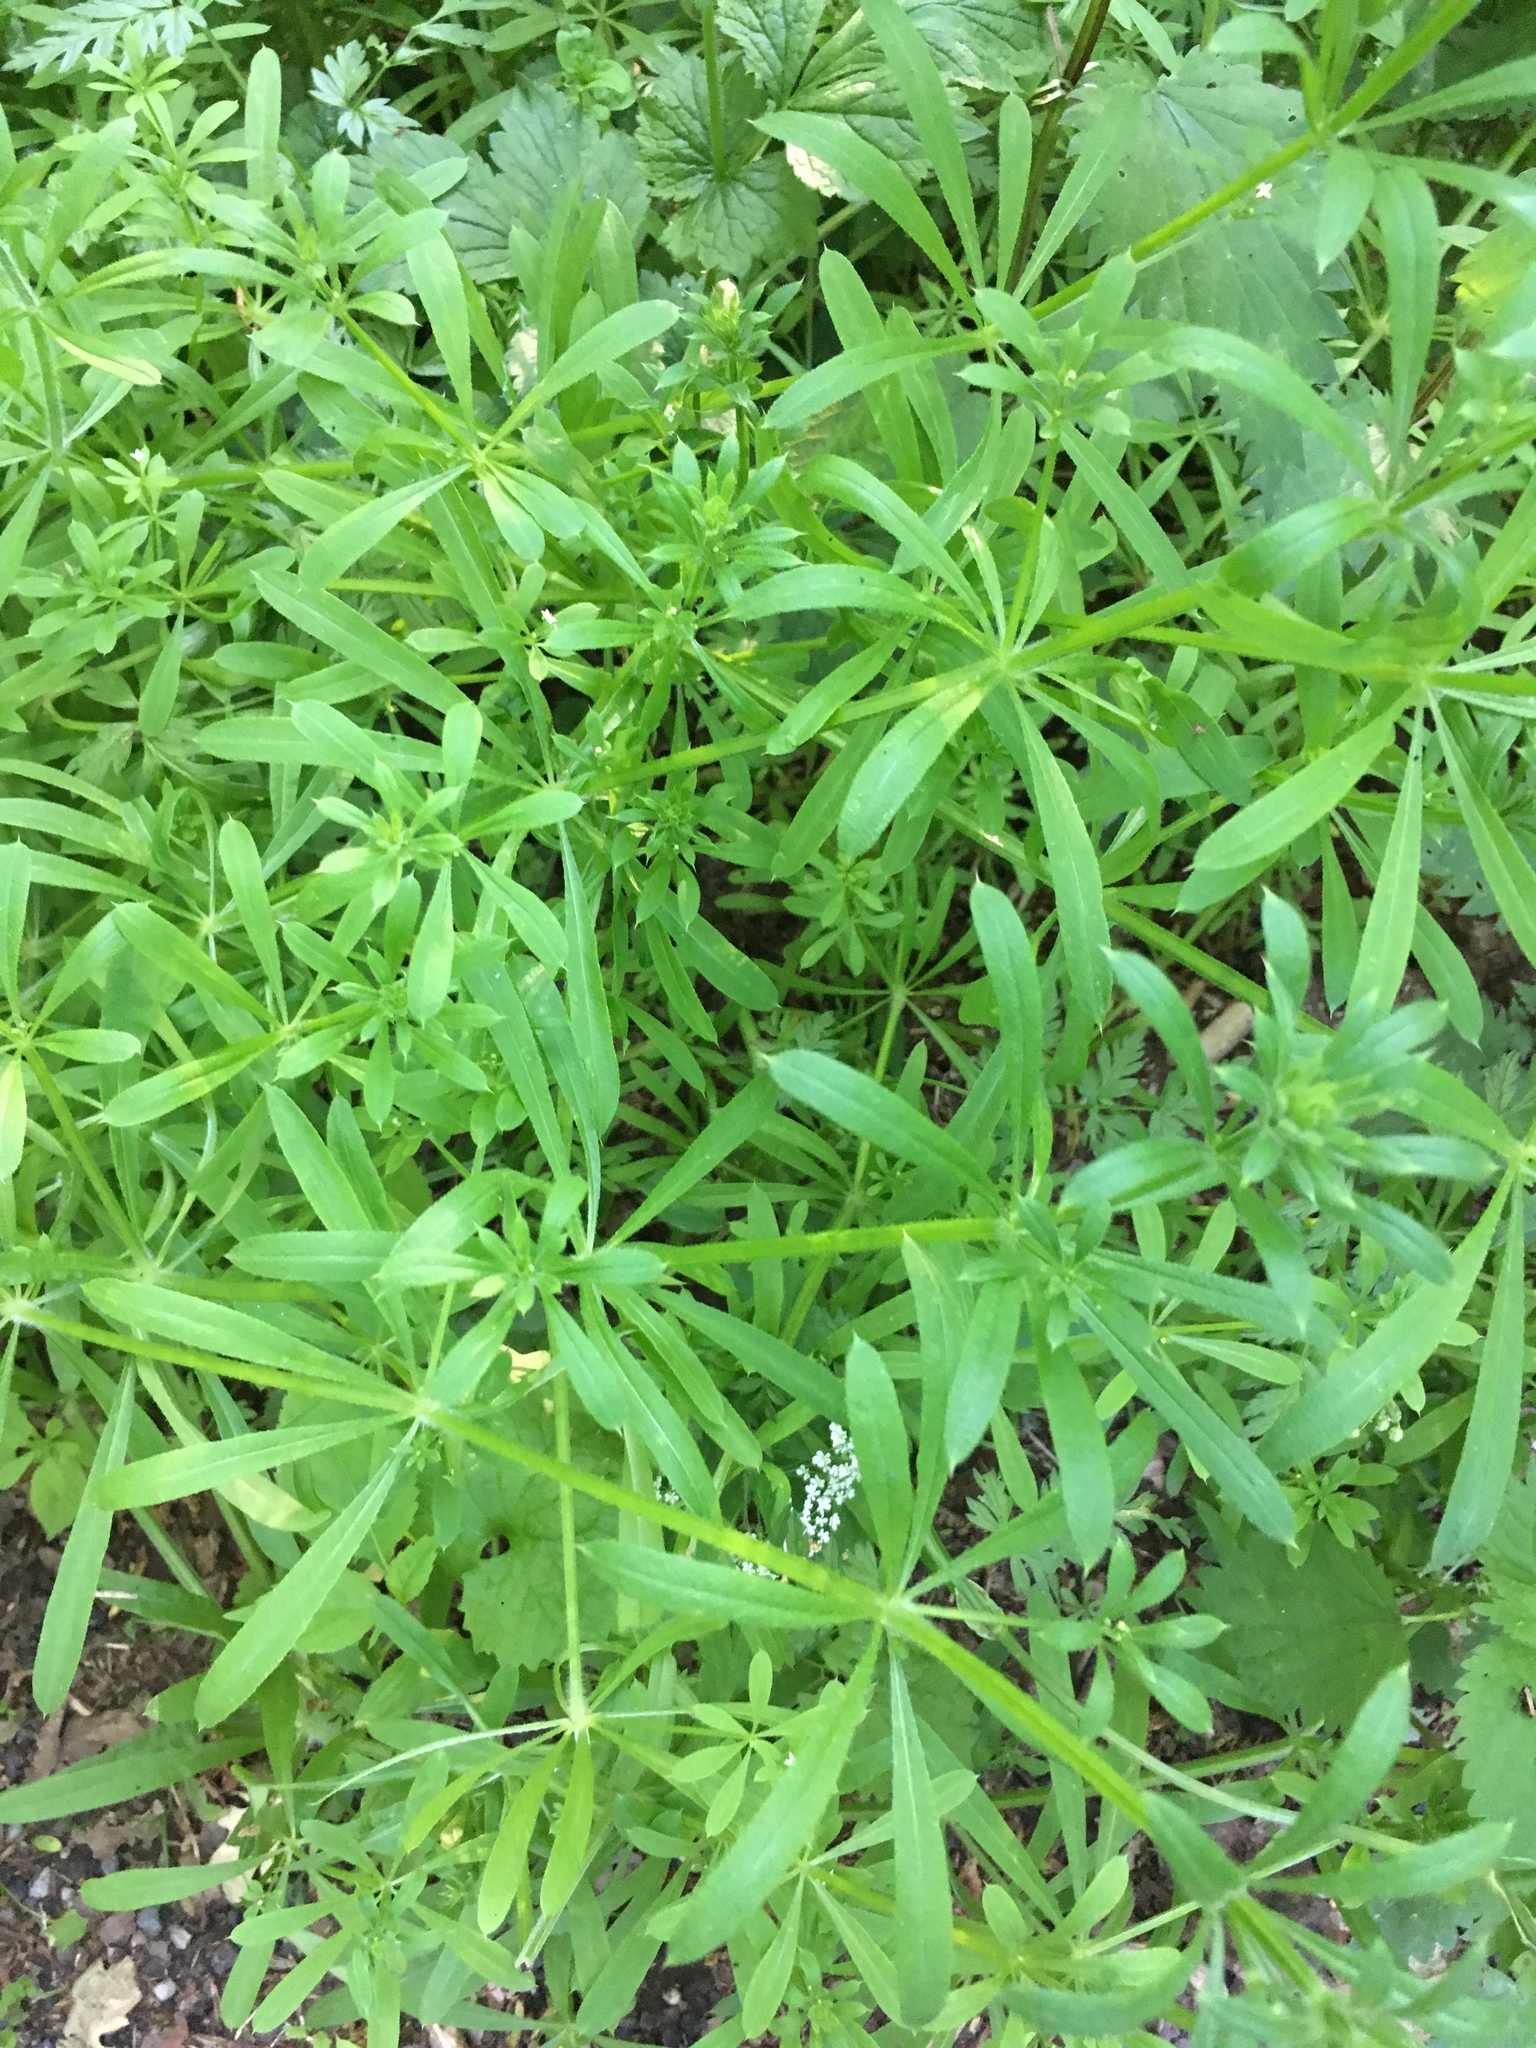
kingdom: Plantae
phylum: Tracheophyta
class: Magnoliopsida
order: Gentianales
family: Rubiaceae
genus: Galium
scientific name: Galium aparine
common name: Cleavers
